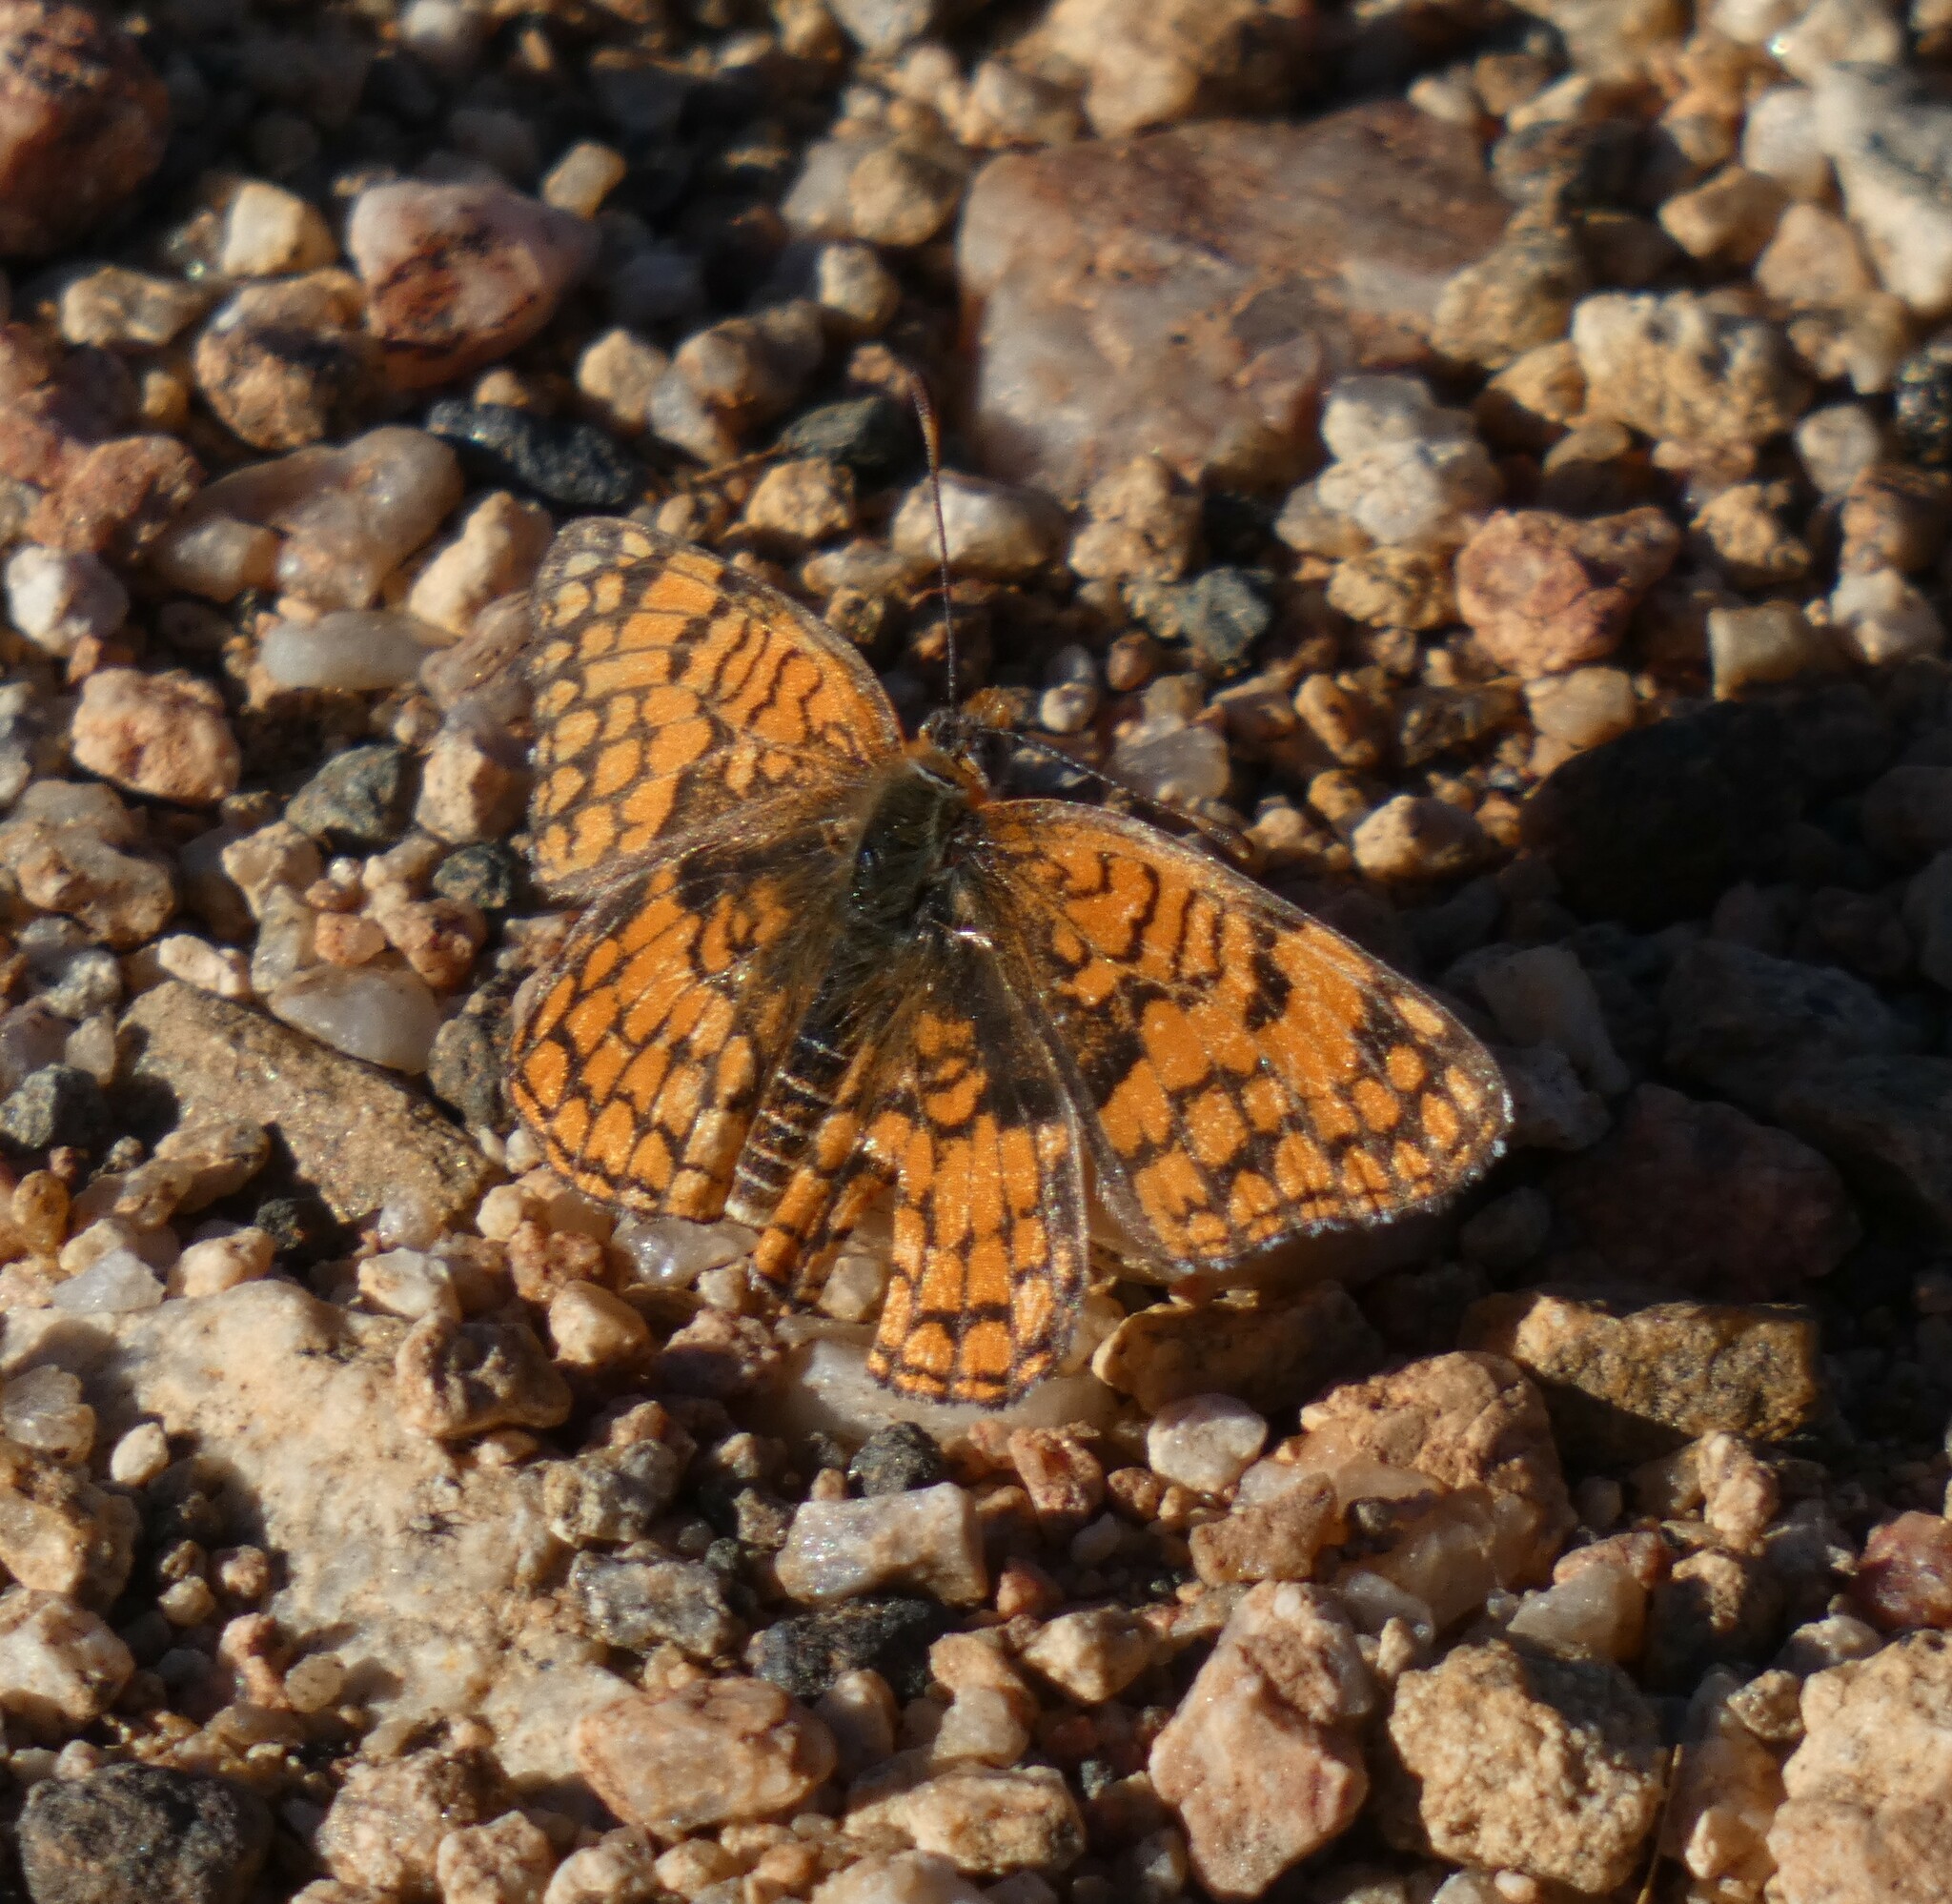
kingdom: Animalia
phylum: Arthropoda
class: Insecta
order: Lepidoptera
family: Nymphalidae
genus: Chlosyne
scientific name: Chlosyne acastus
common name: Sagebrush checkerspot
